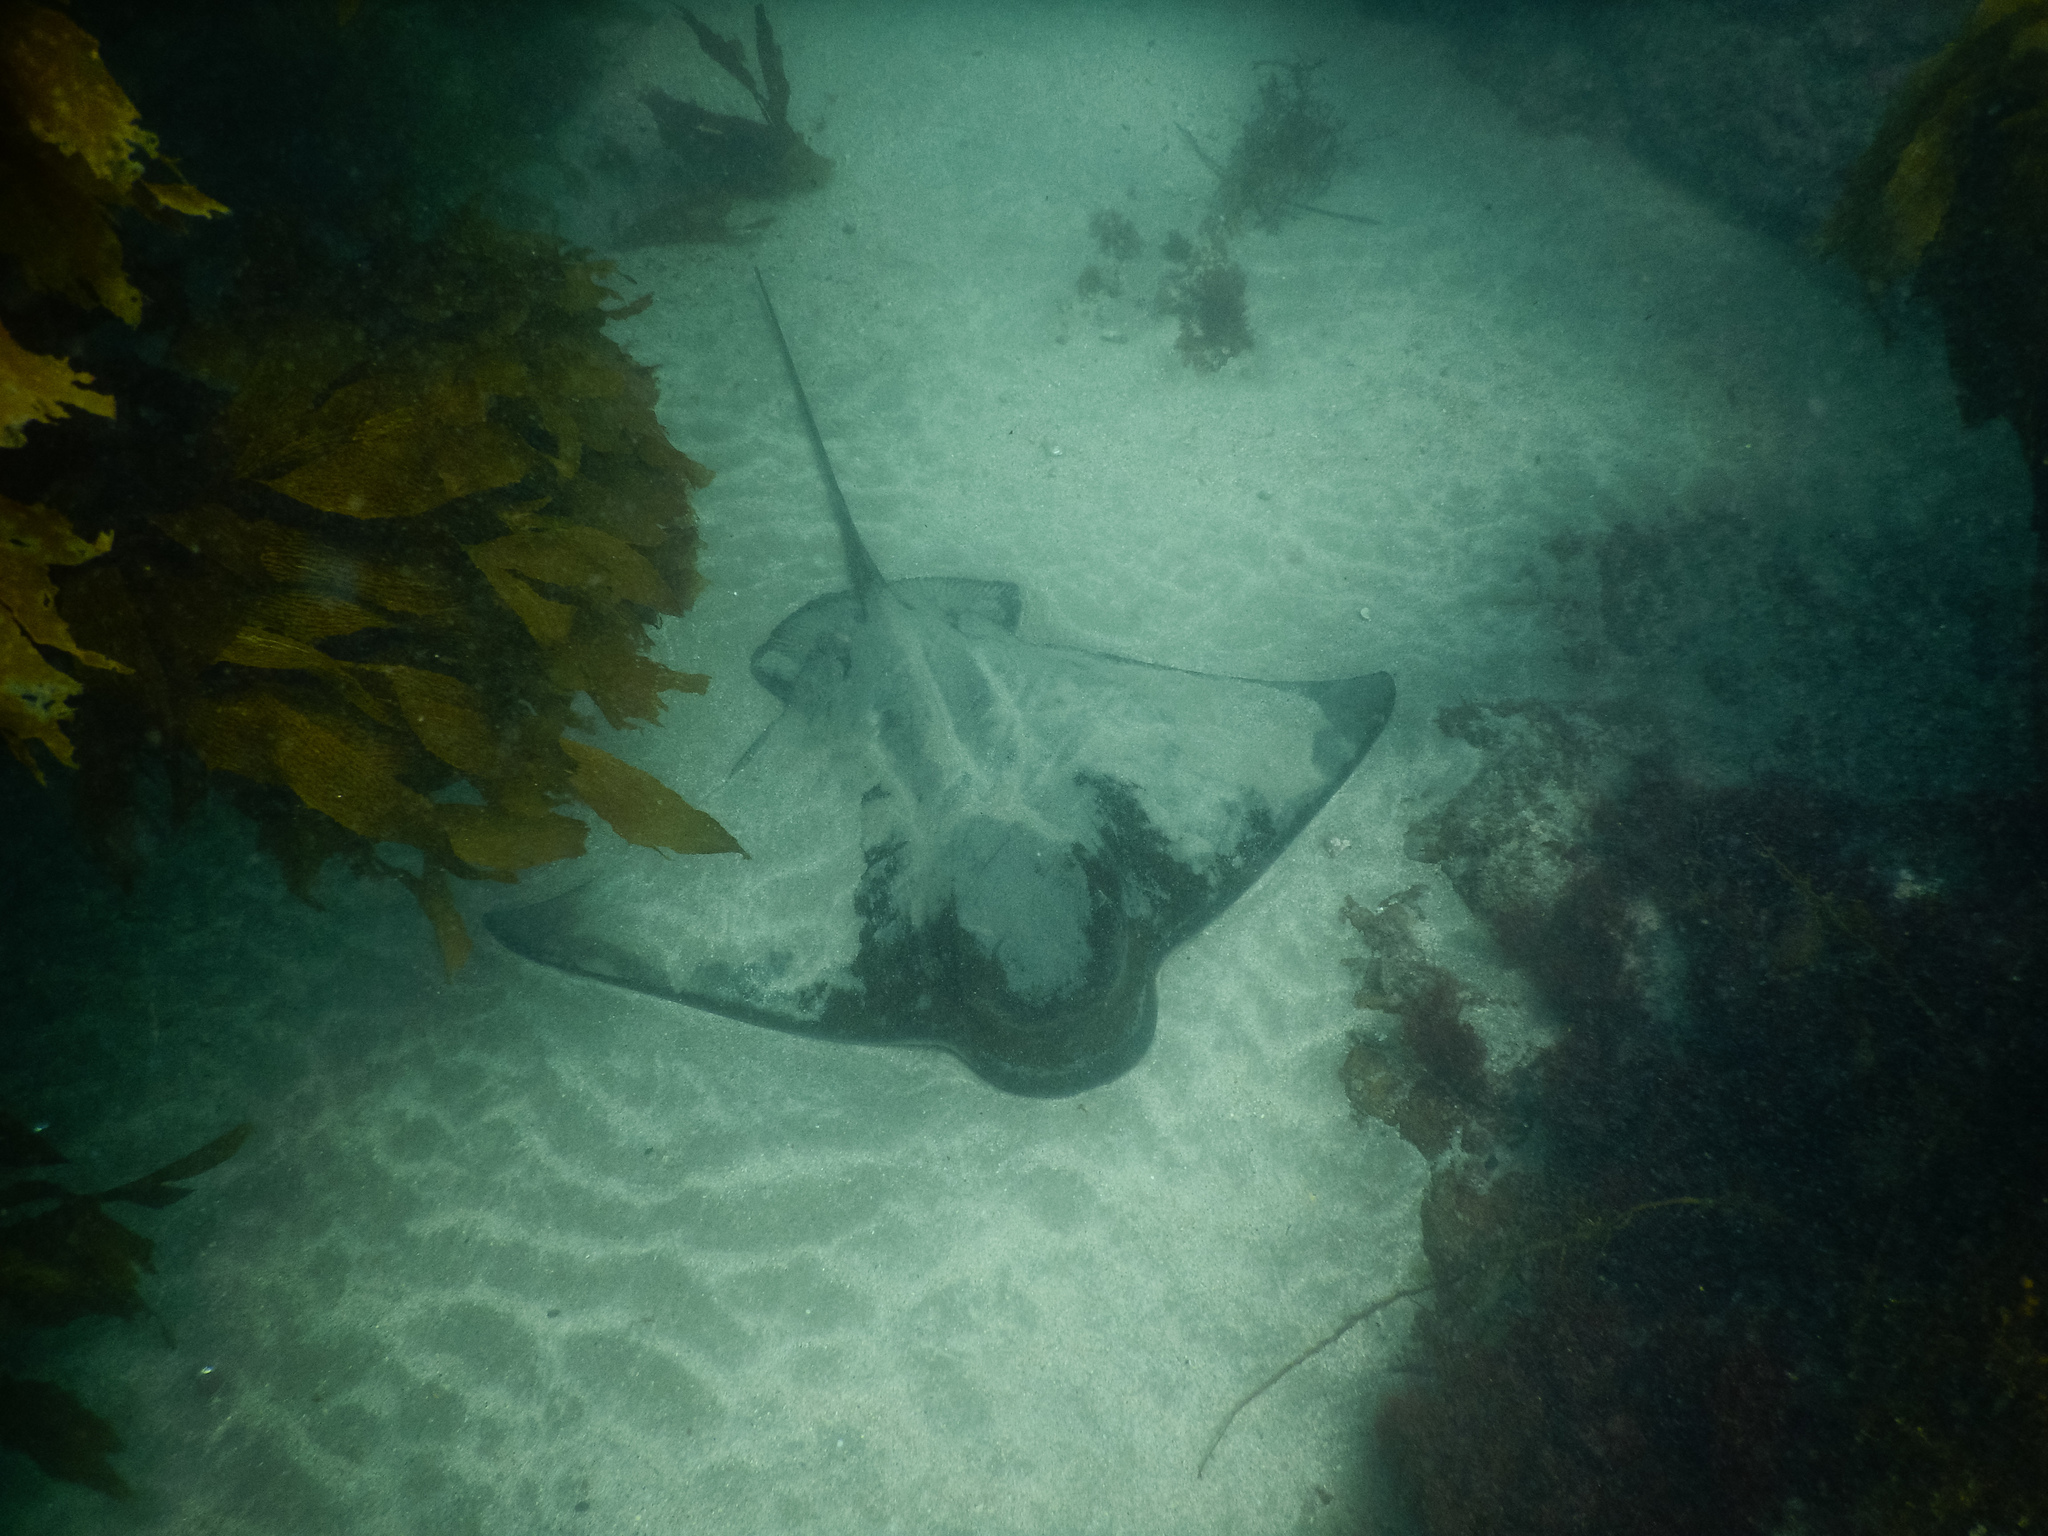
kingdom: Animalia
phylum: Chordata
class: Elasmobranchii
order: Myliobatiformes
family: Myliobatidae
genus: Myliobatis
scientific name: Myliobatis tenuicaudatus
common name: Eagle ray
